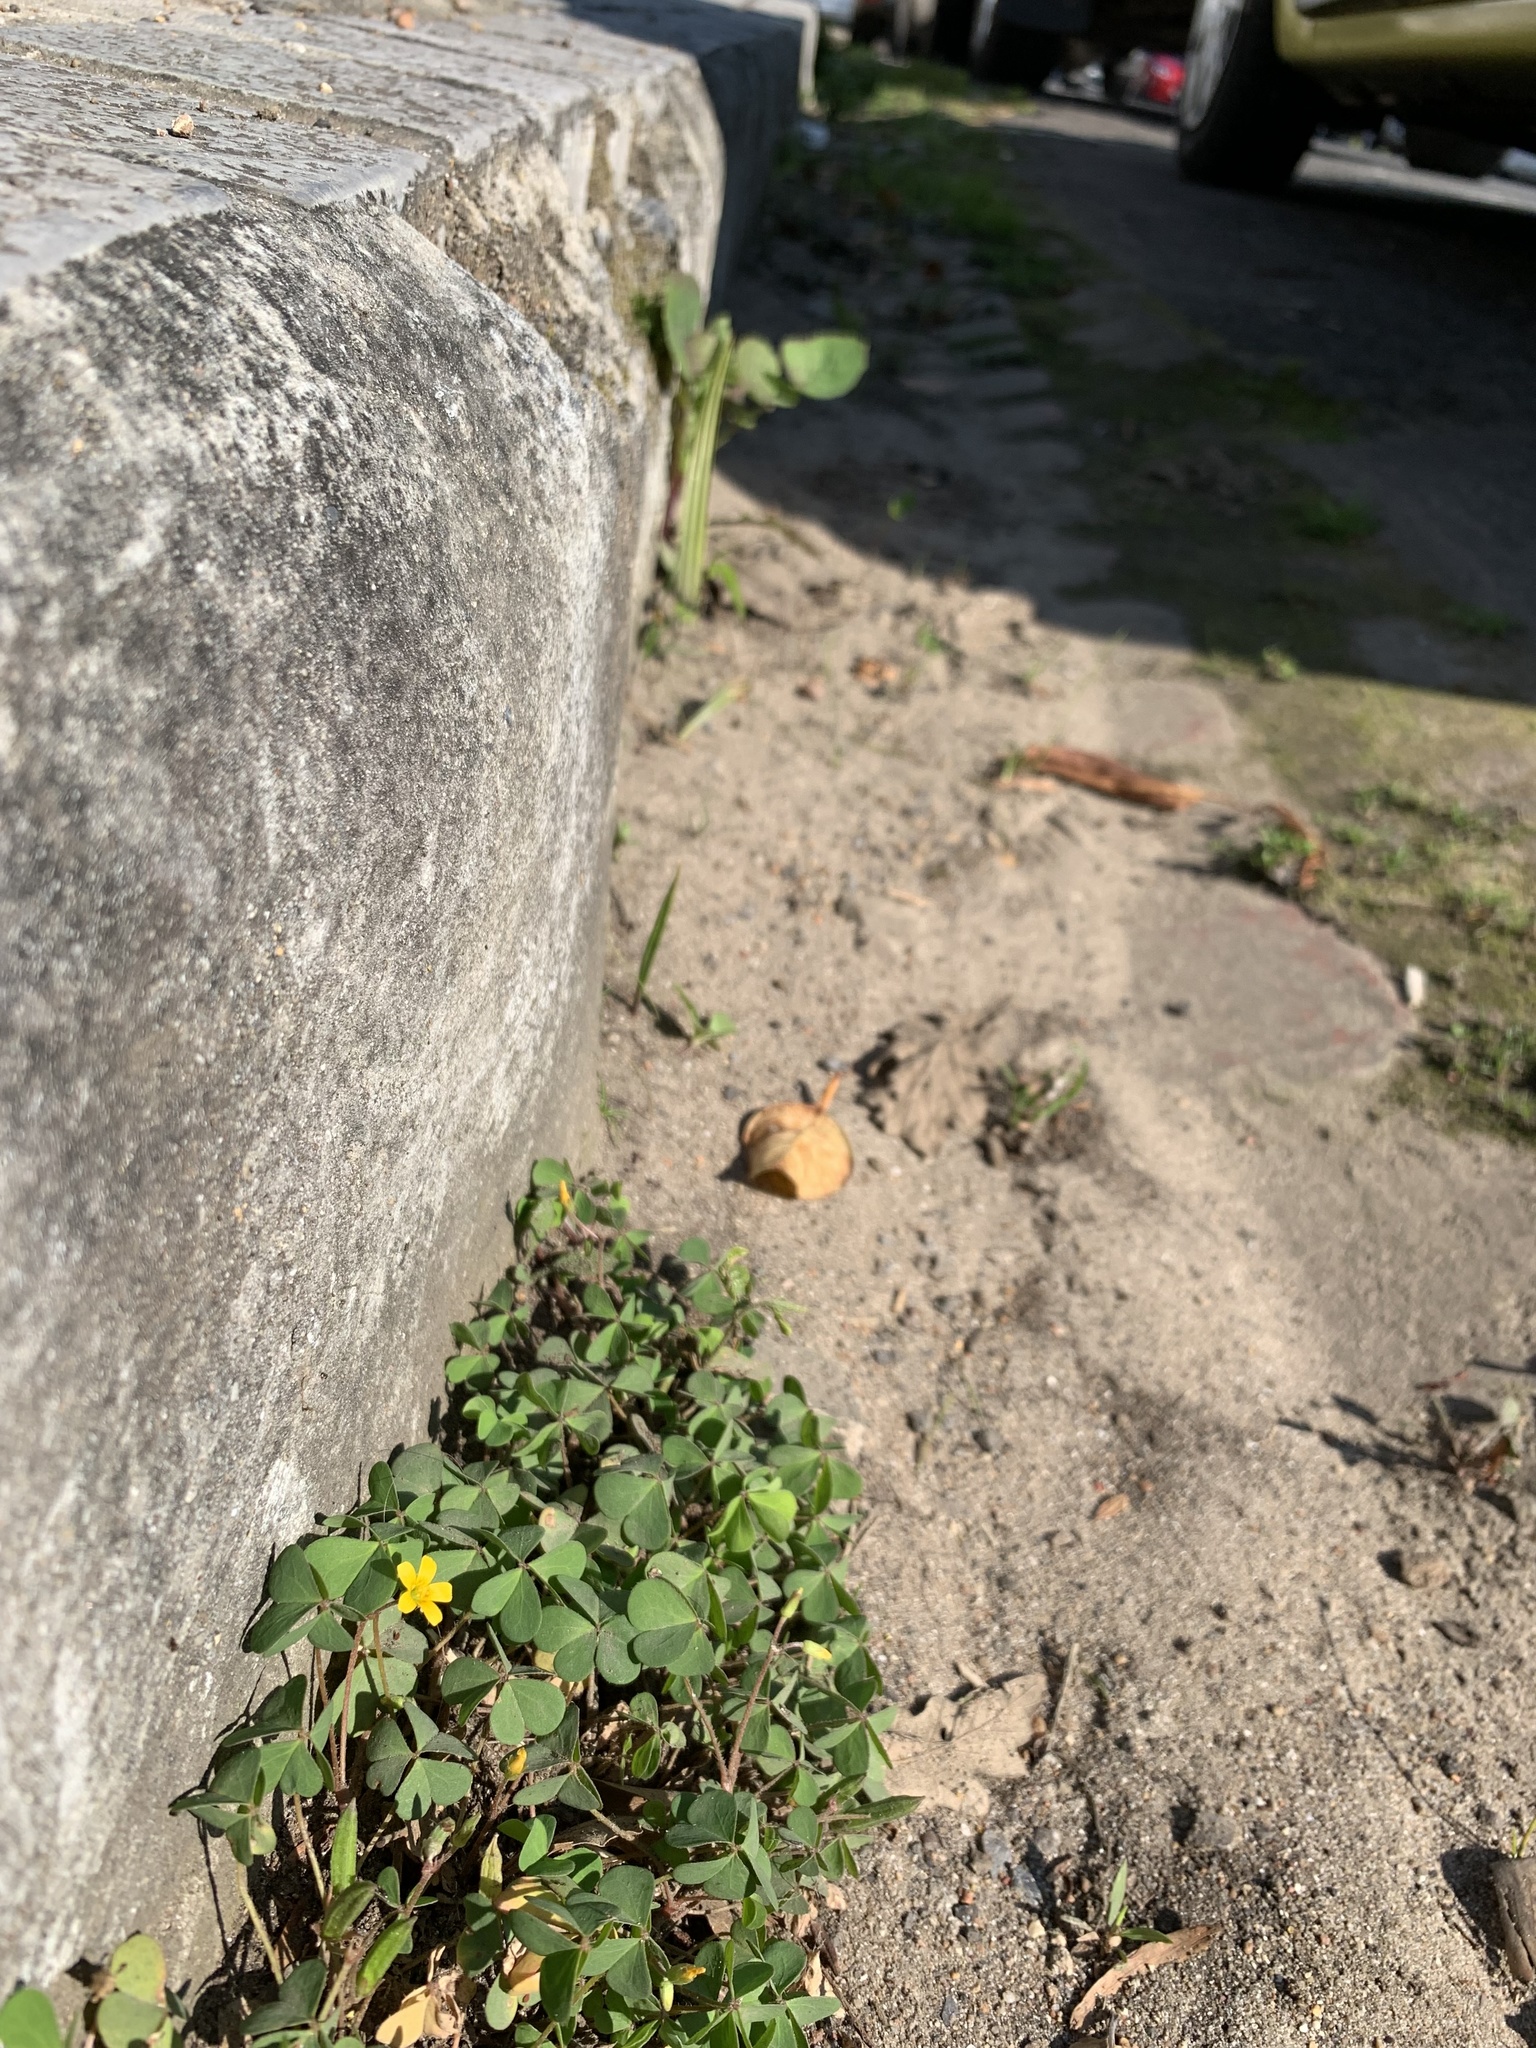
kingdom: Plantae
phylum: Tracheophyta
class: Magnoliopsida
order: Oxalidales
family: Oxalidaceae
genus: Oxalis
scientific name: Oxalis corniculata
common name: Procumbent yellow-sorrel
